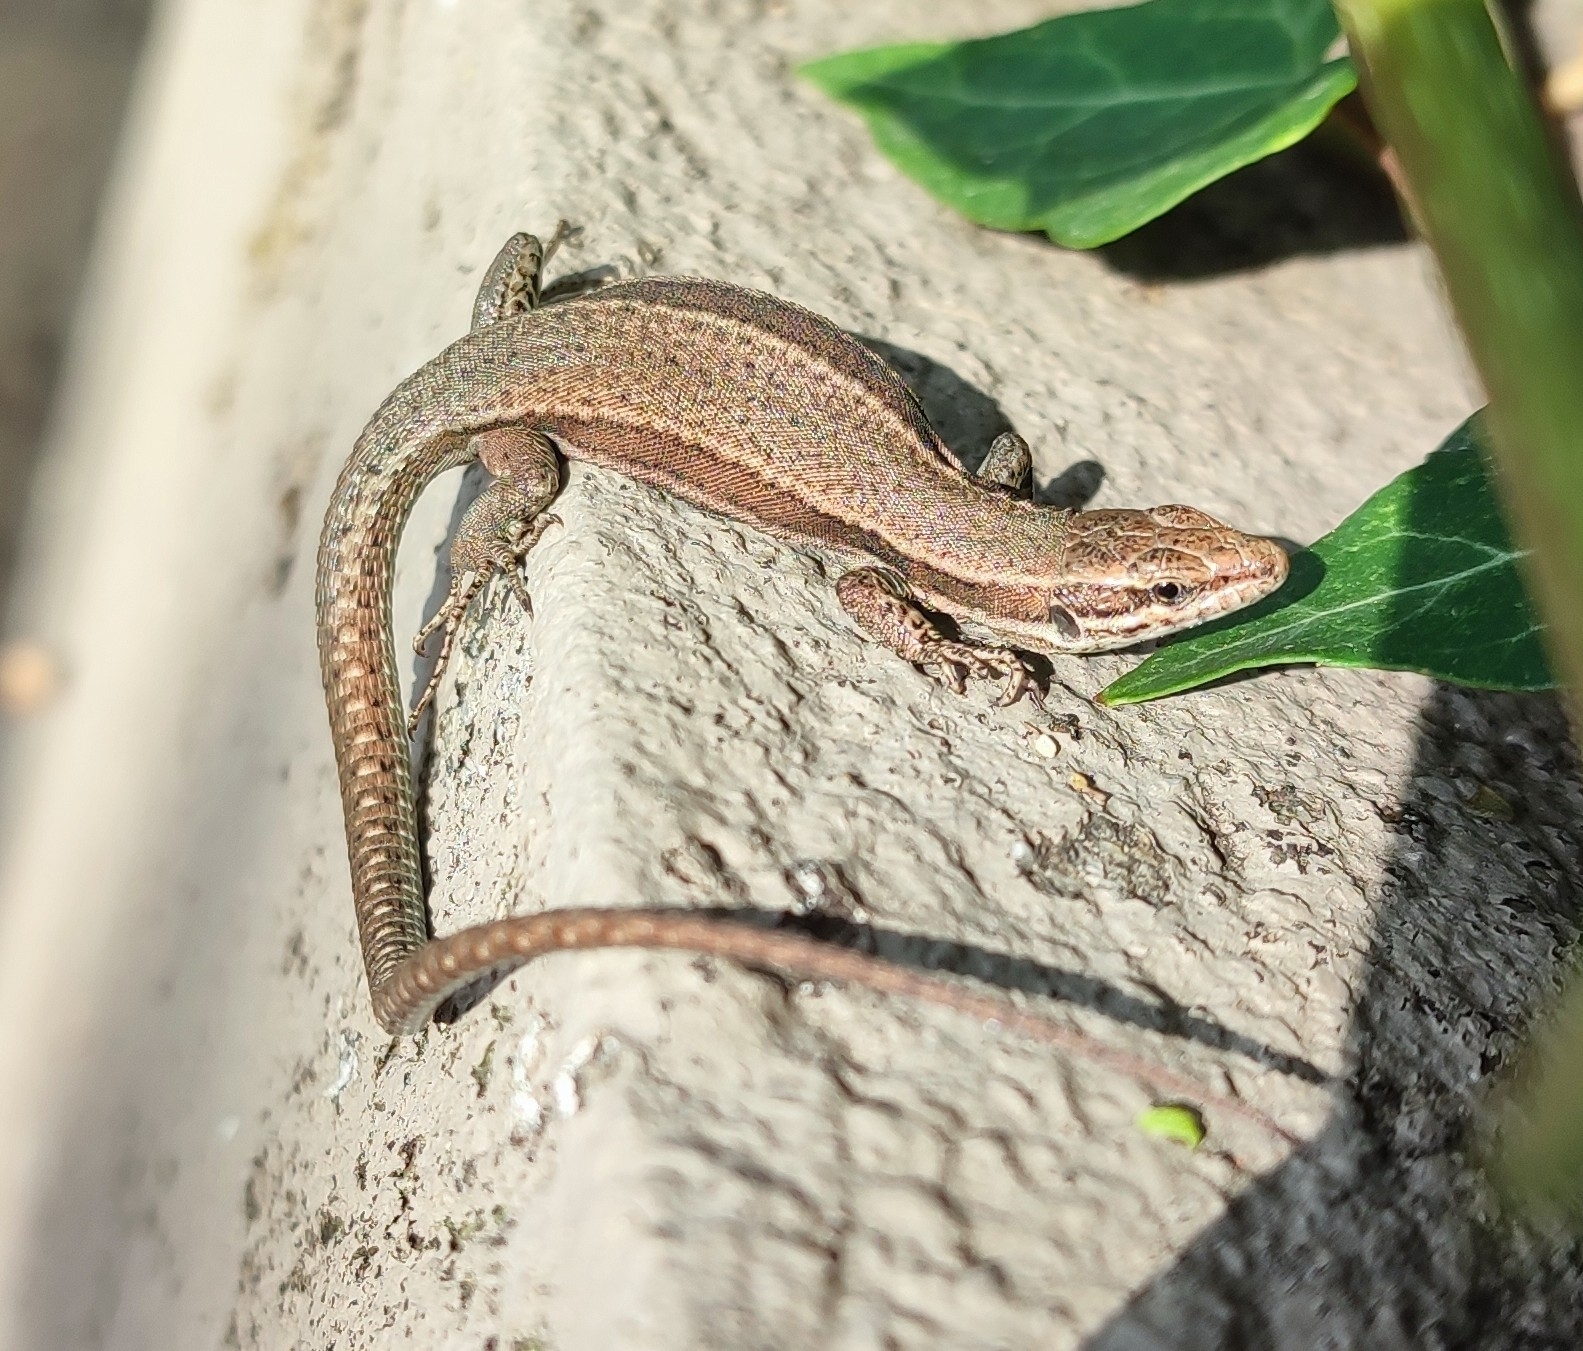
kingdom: Animalia
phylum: Chordata
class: Squamata
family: Lacertidae
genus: Podarcis
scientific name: Podarcis muralis
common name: Common wall lizard
